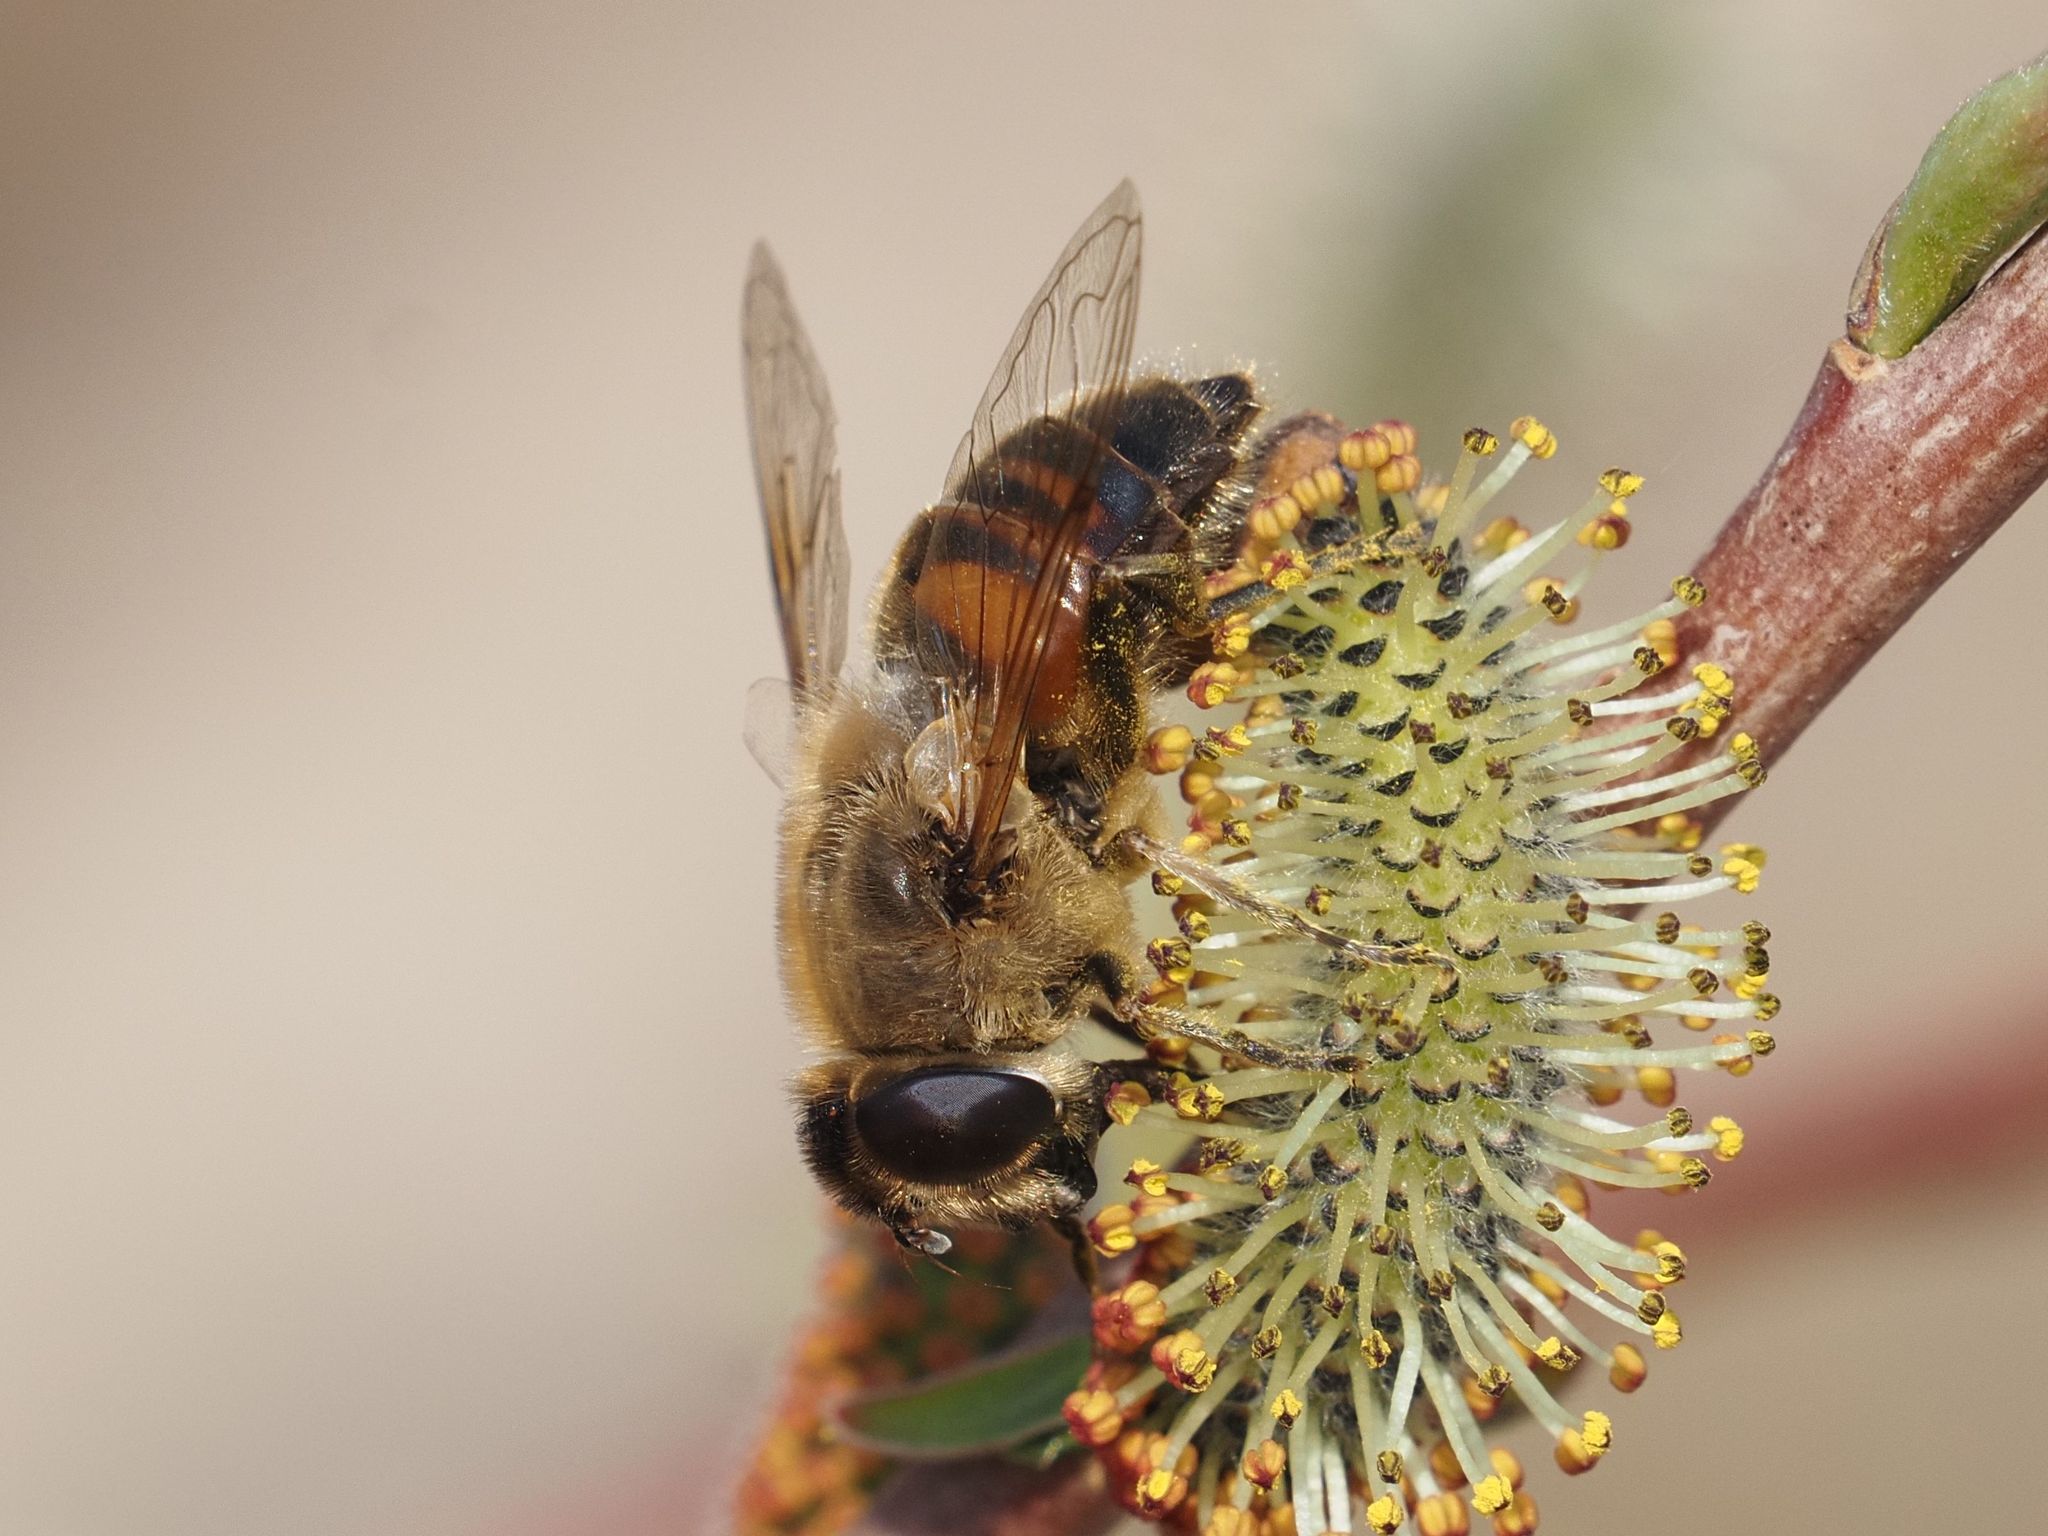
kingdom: Animalia
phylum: Arthropoda
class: Insecta
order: Diptera
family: Syrphidae
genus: Eristalis
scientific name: Eristalis tenax
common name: Drone fly
